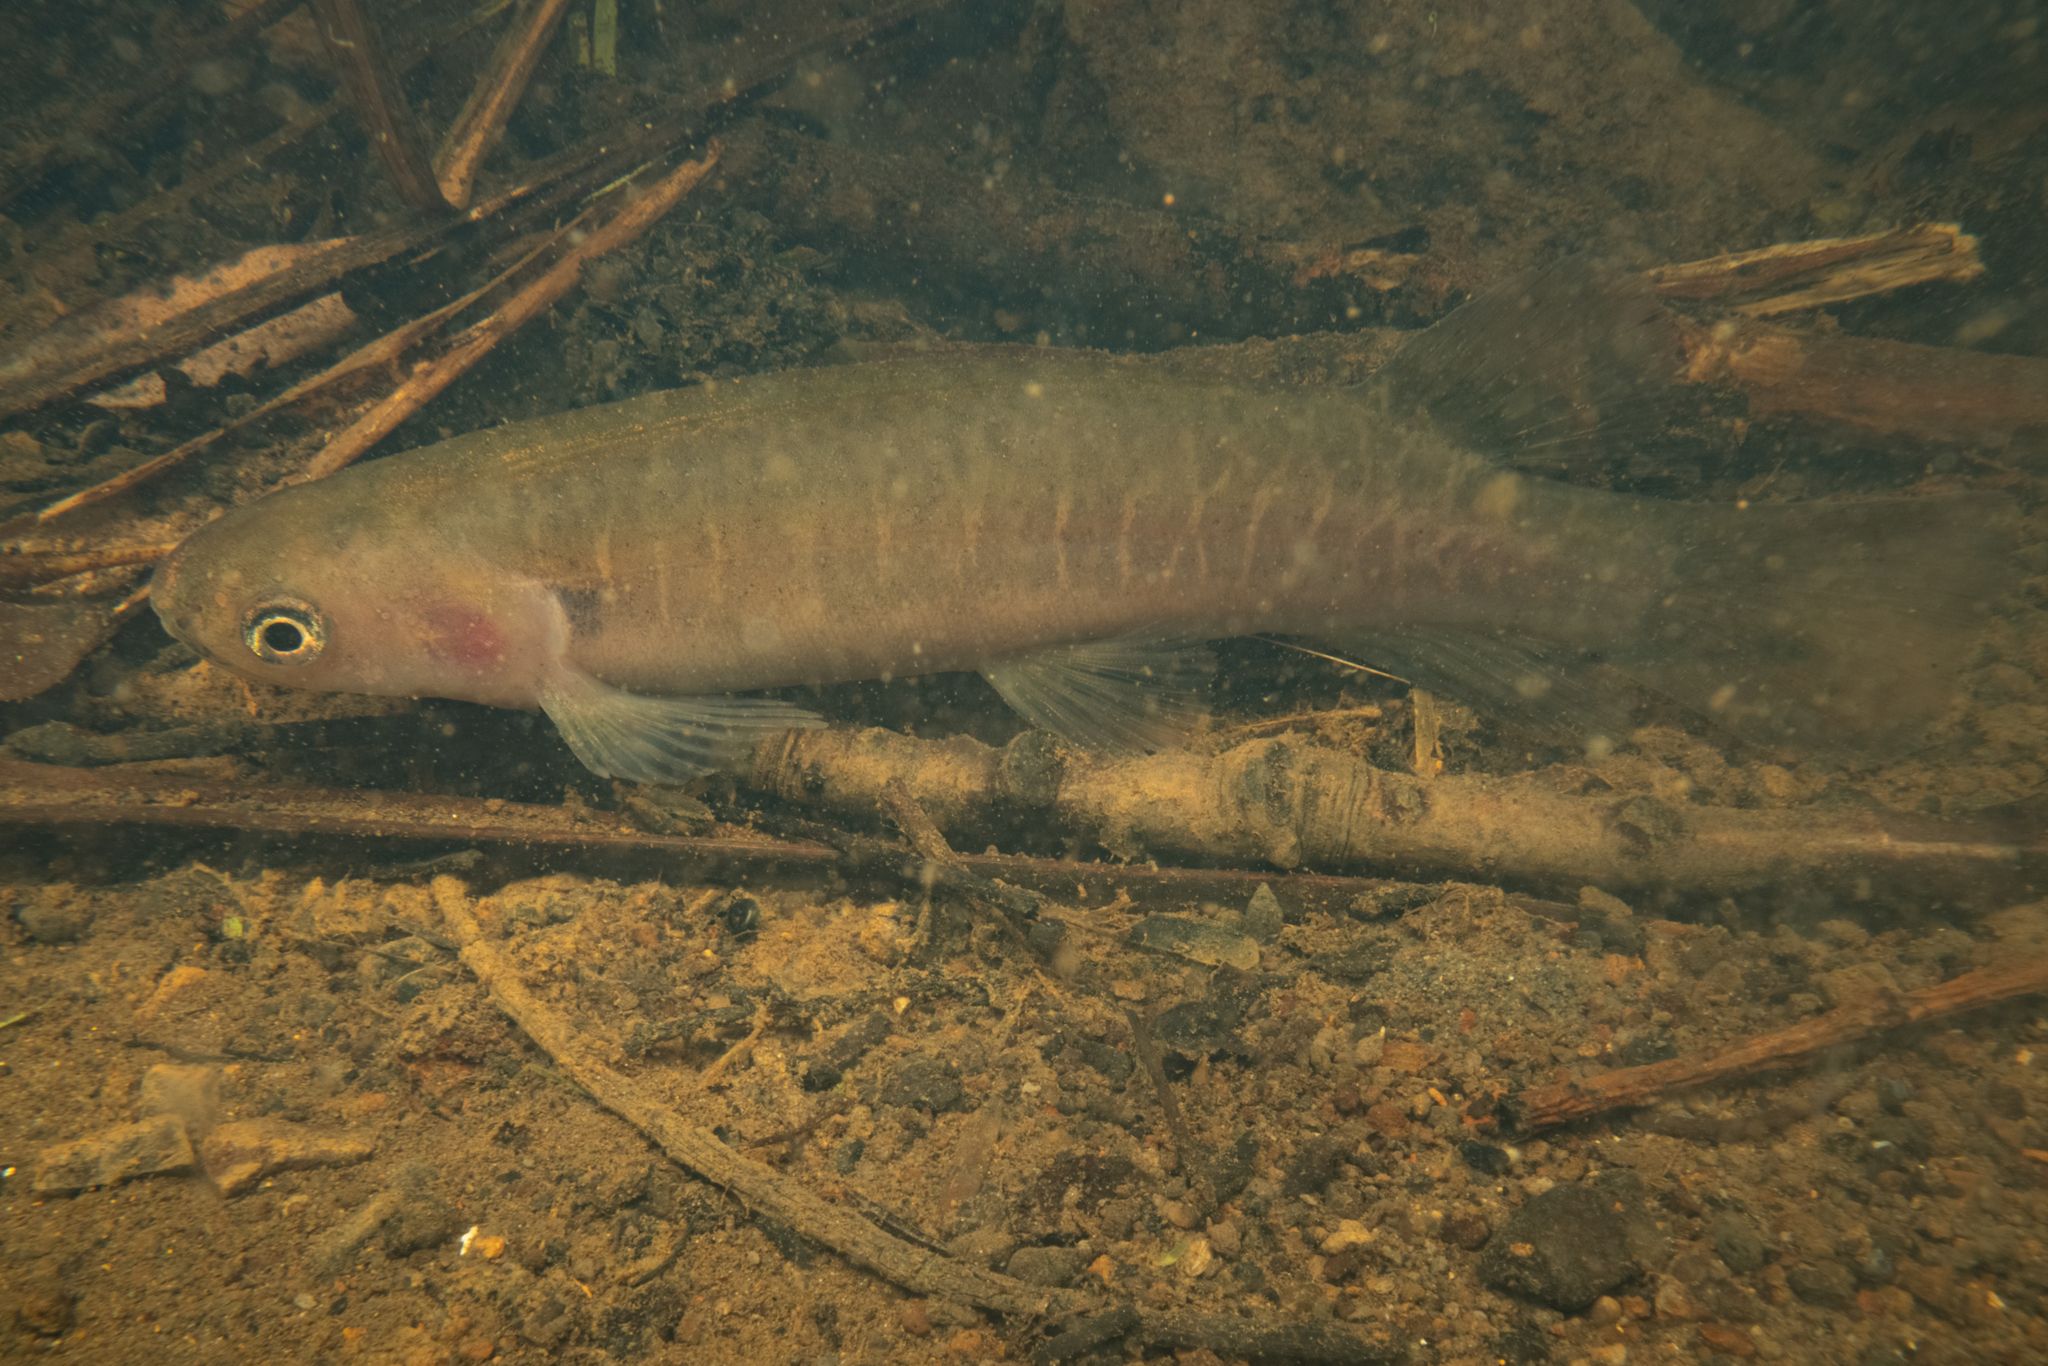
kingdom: Animalia
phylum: Chordata
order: Osmeriformes
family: Galaxiidae
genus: Galaxias
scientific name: Galaxias fasciatus
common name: Banded kokopu
